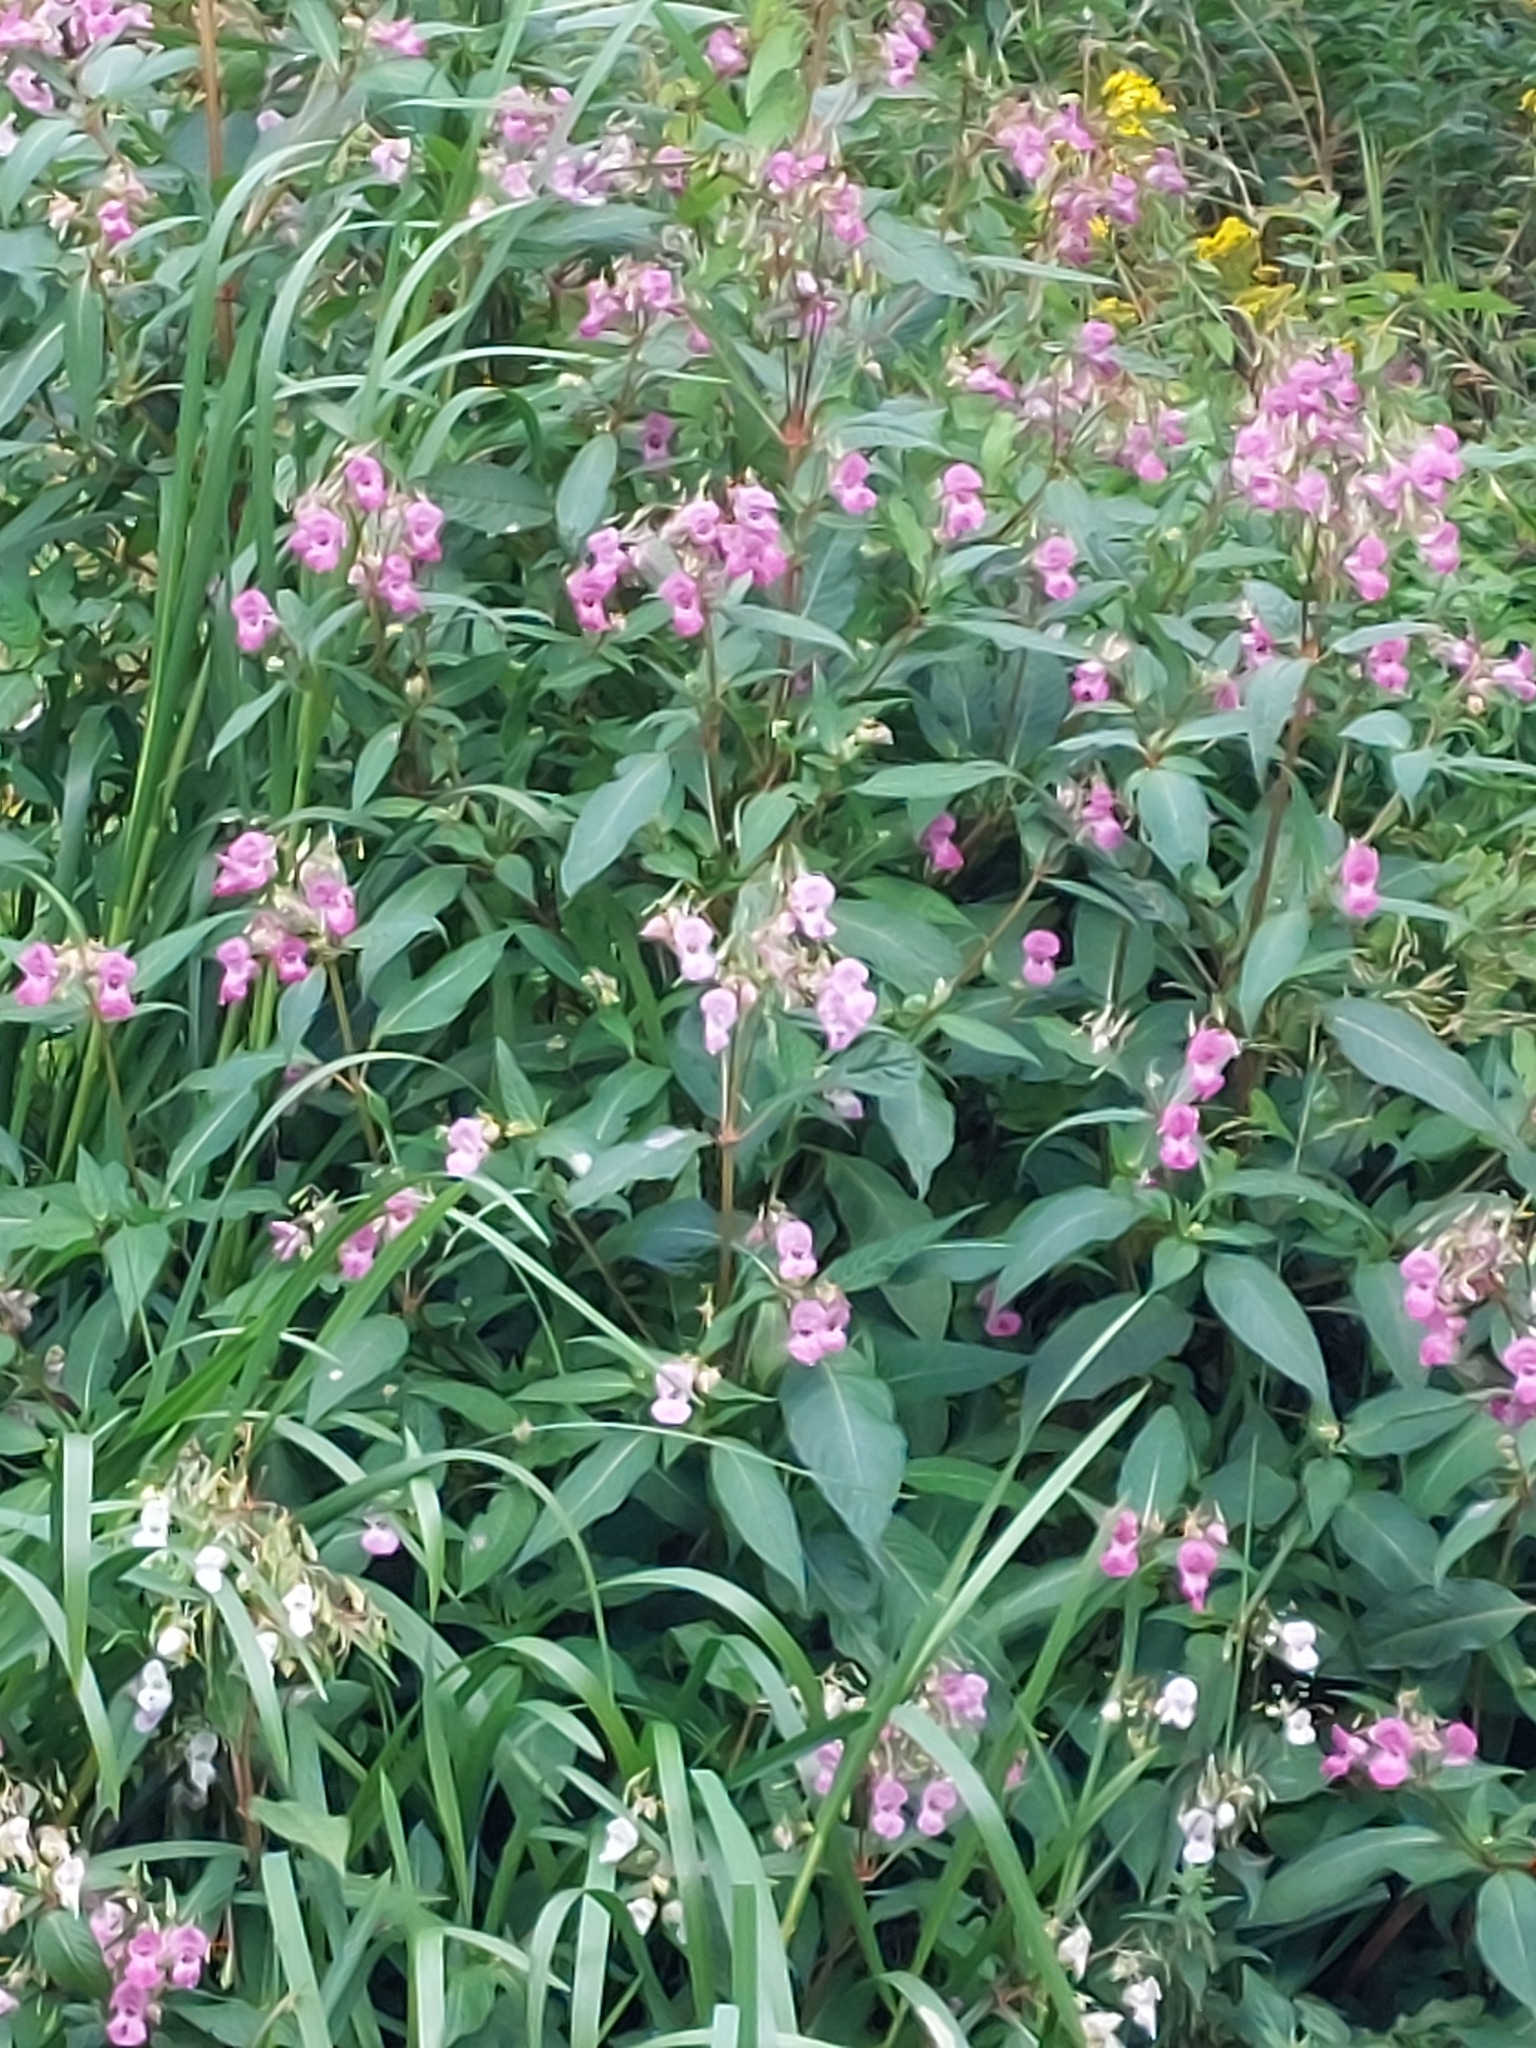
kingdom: Plantae
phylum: Tracheophyta
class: Magnoliopsida
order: Ericales
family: Balsaminaceae
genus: Impatiens
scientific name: Impatiens glandulifera
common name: Himalayan balsam
